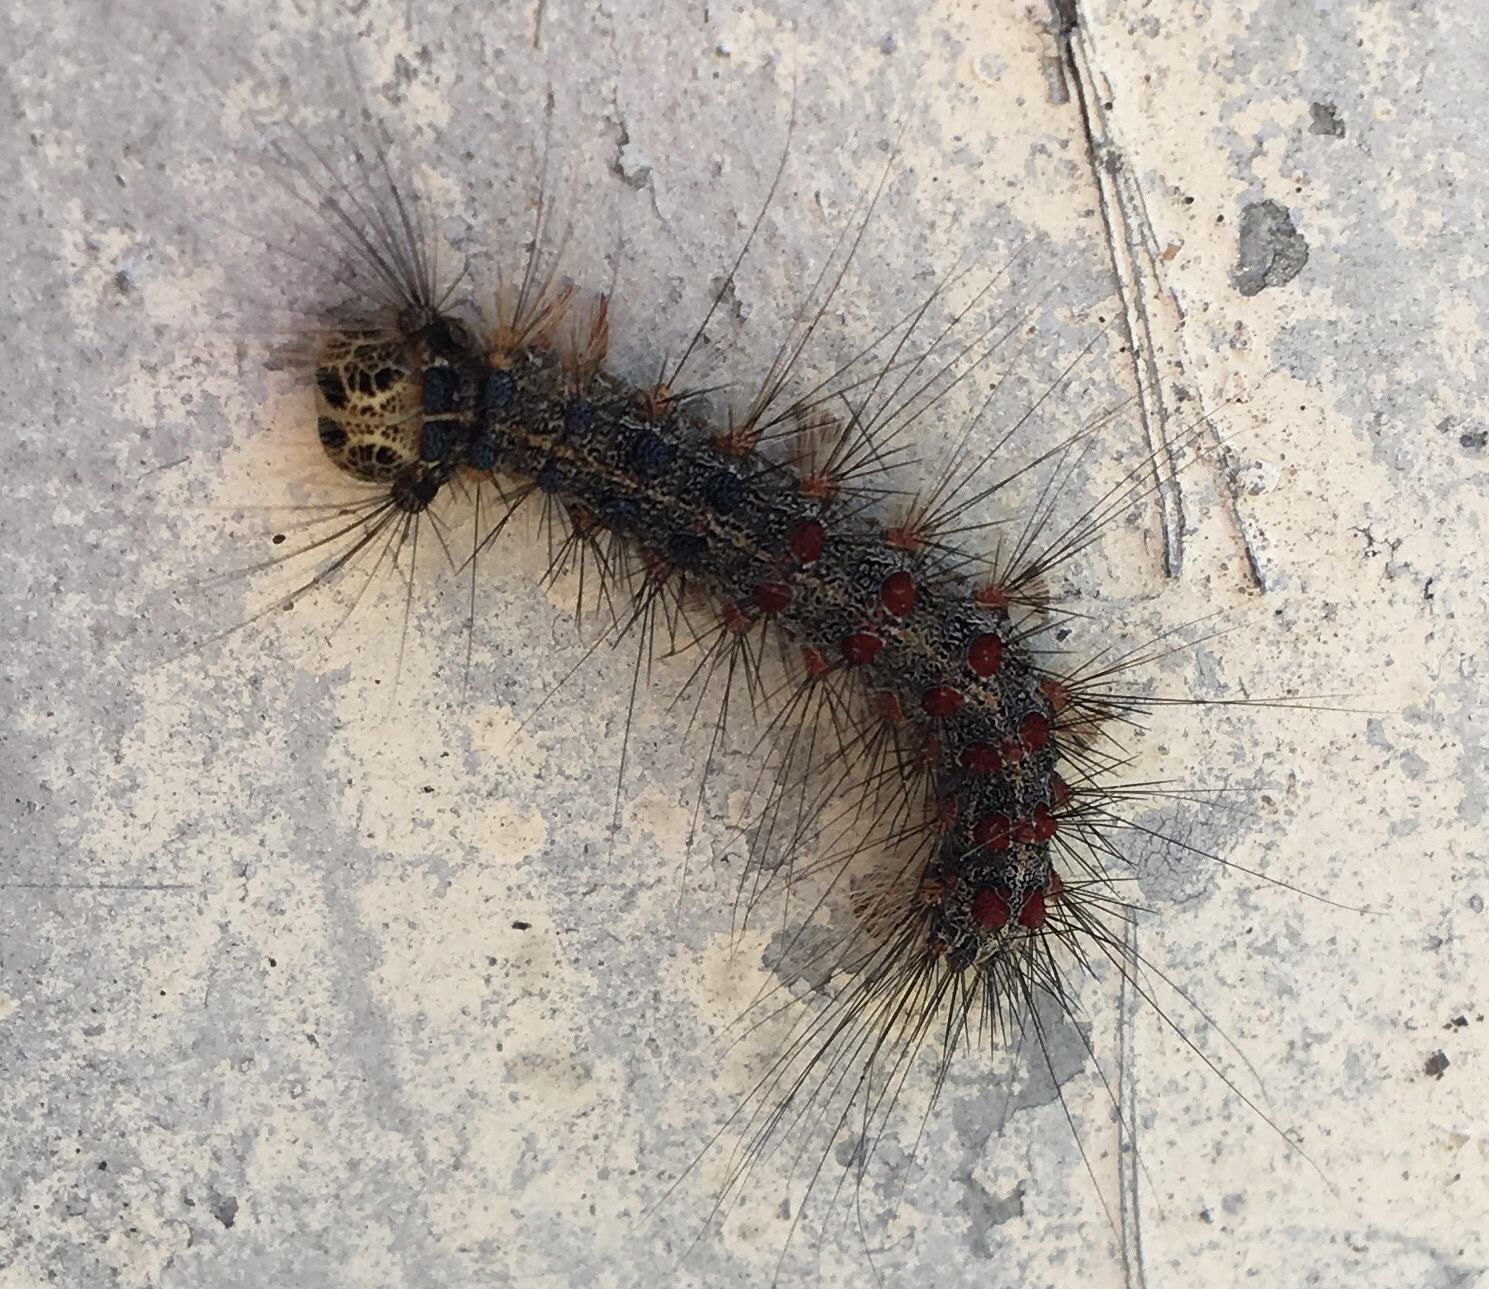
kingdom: Animalia
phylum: Arthropoda
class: Insecta
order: Lepidoptera
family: Erebidae
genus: Lymantria
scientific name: Lymantria dispar
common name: Gypsy moth
